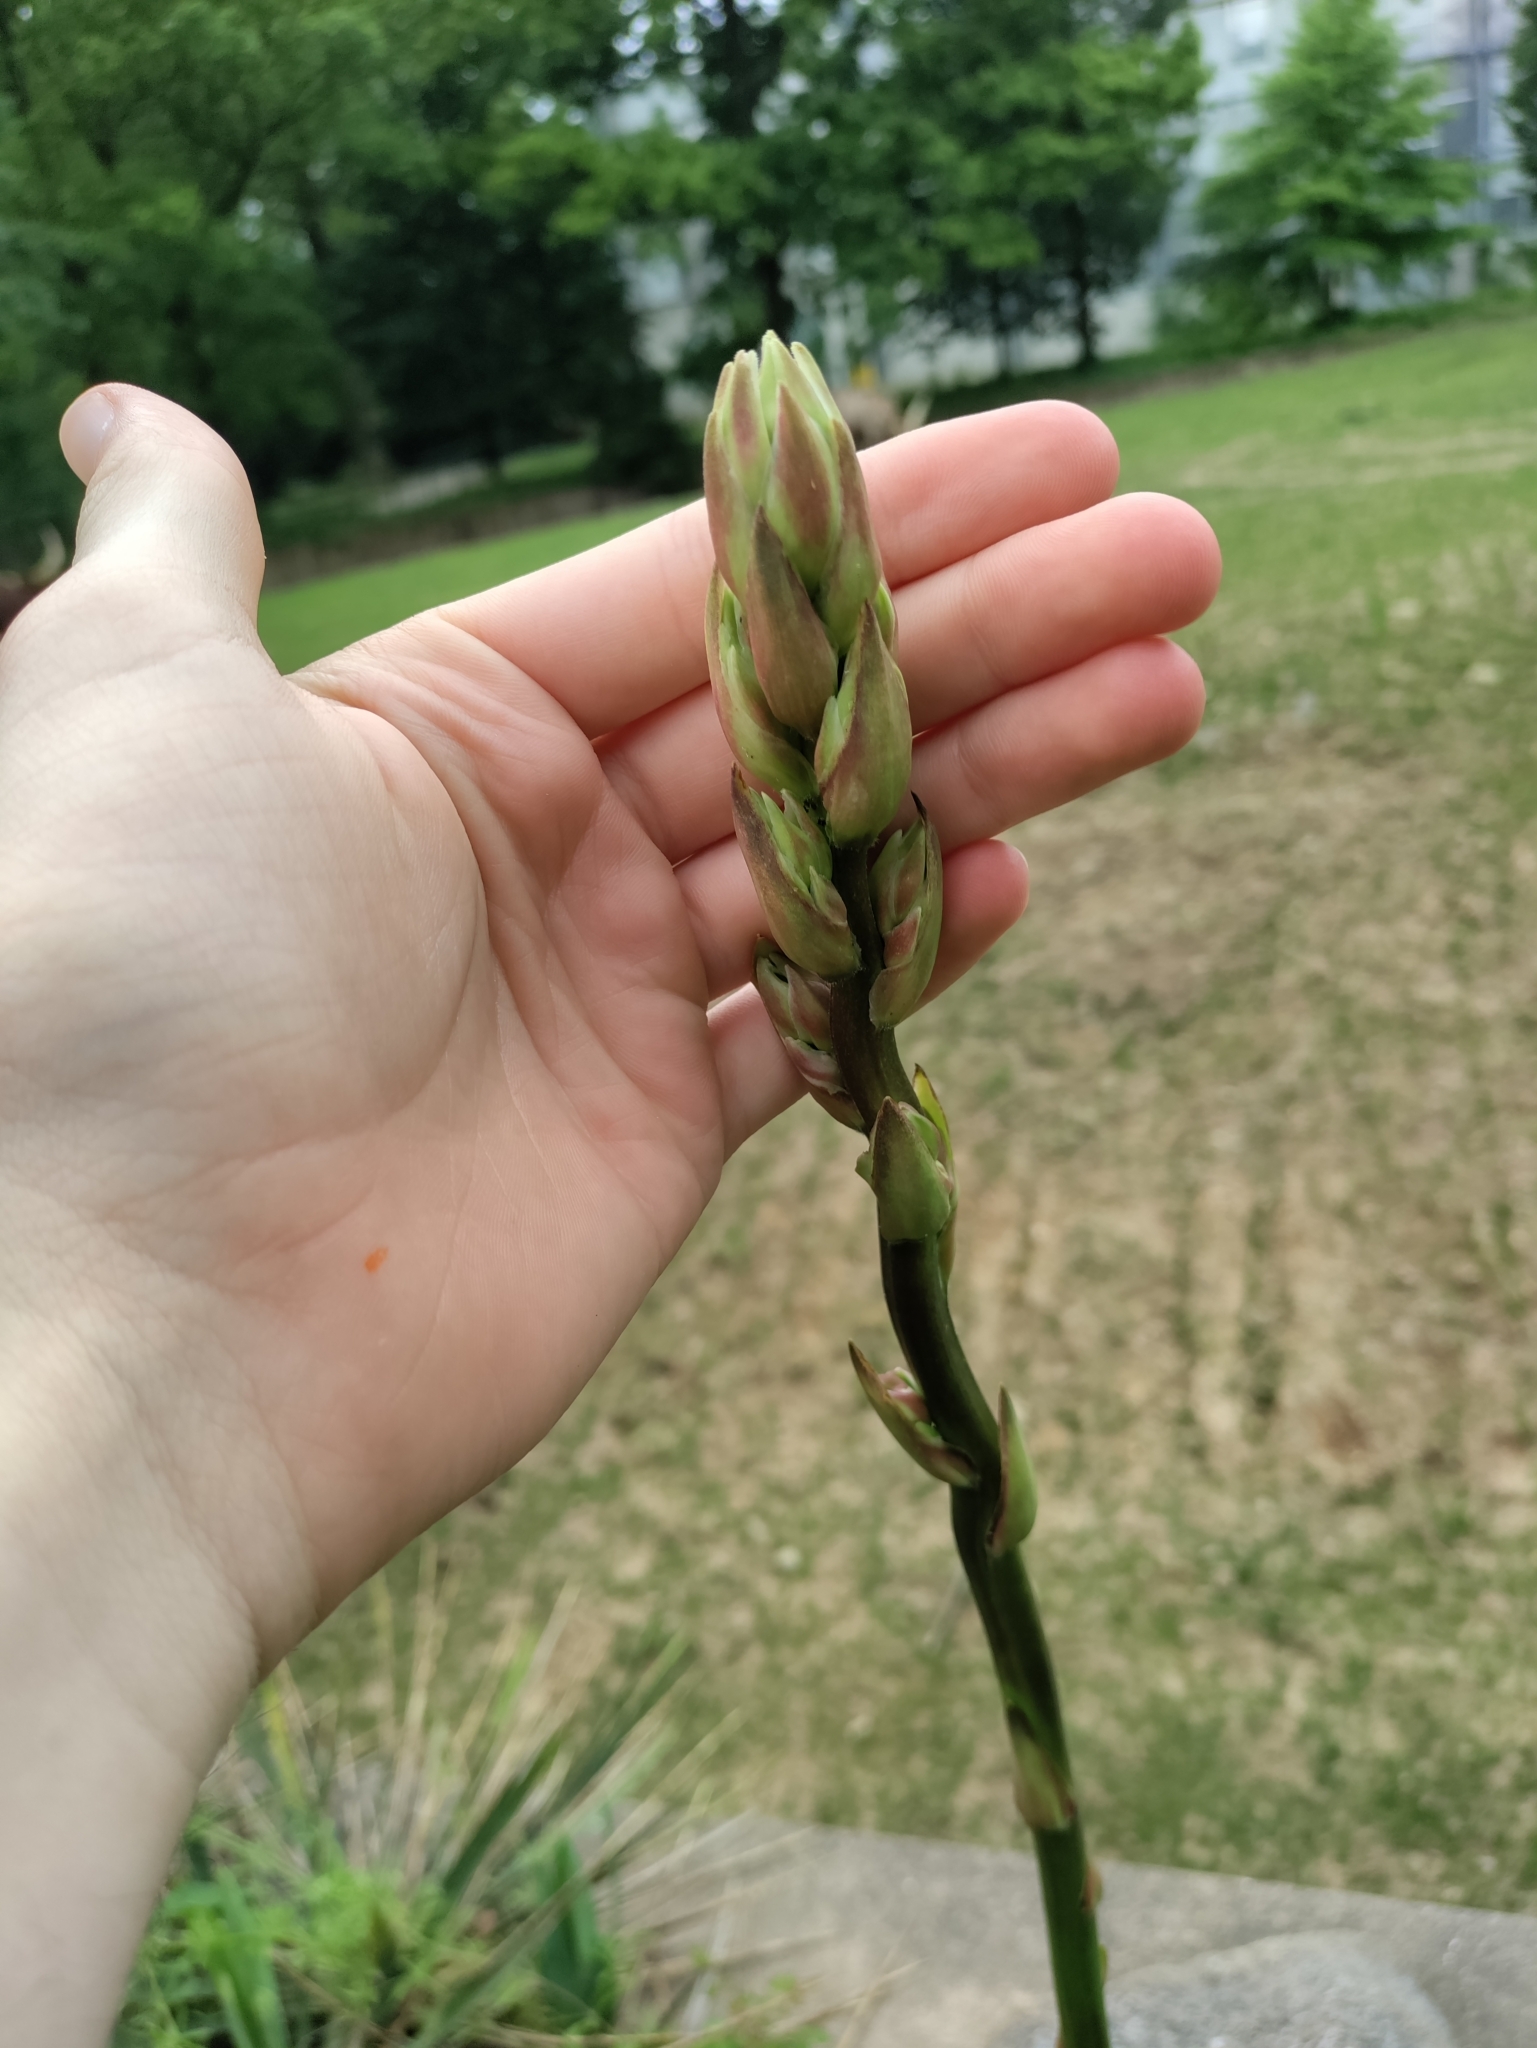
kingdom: Plantae
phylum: Tracheophyta
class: Liliopsida
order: Asparagales
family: Asparagaceae
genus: Yucca
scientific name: Yucca filamentosa
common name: Adam's-needle
